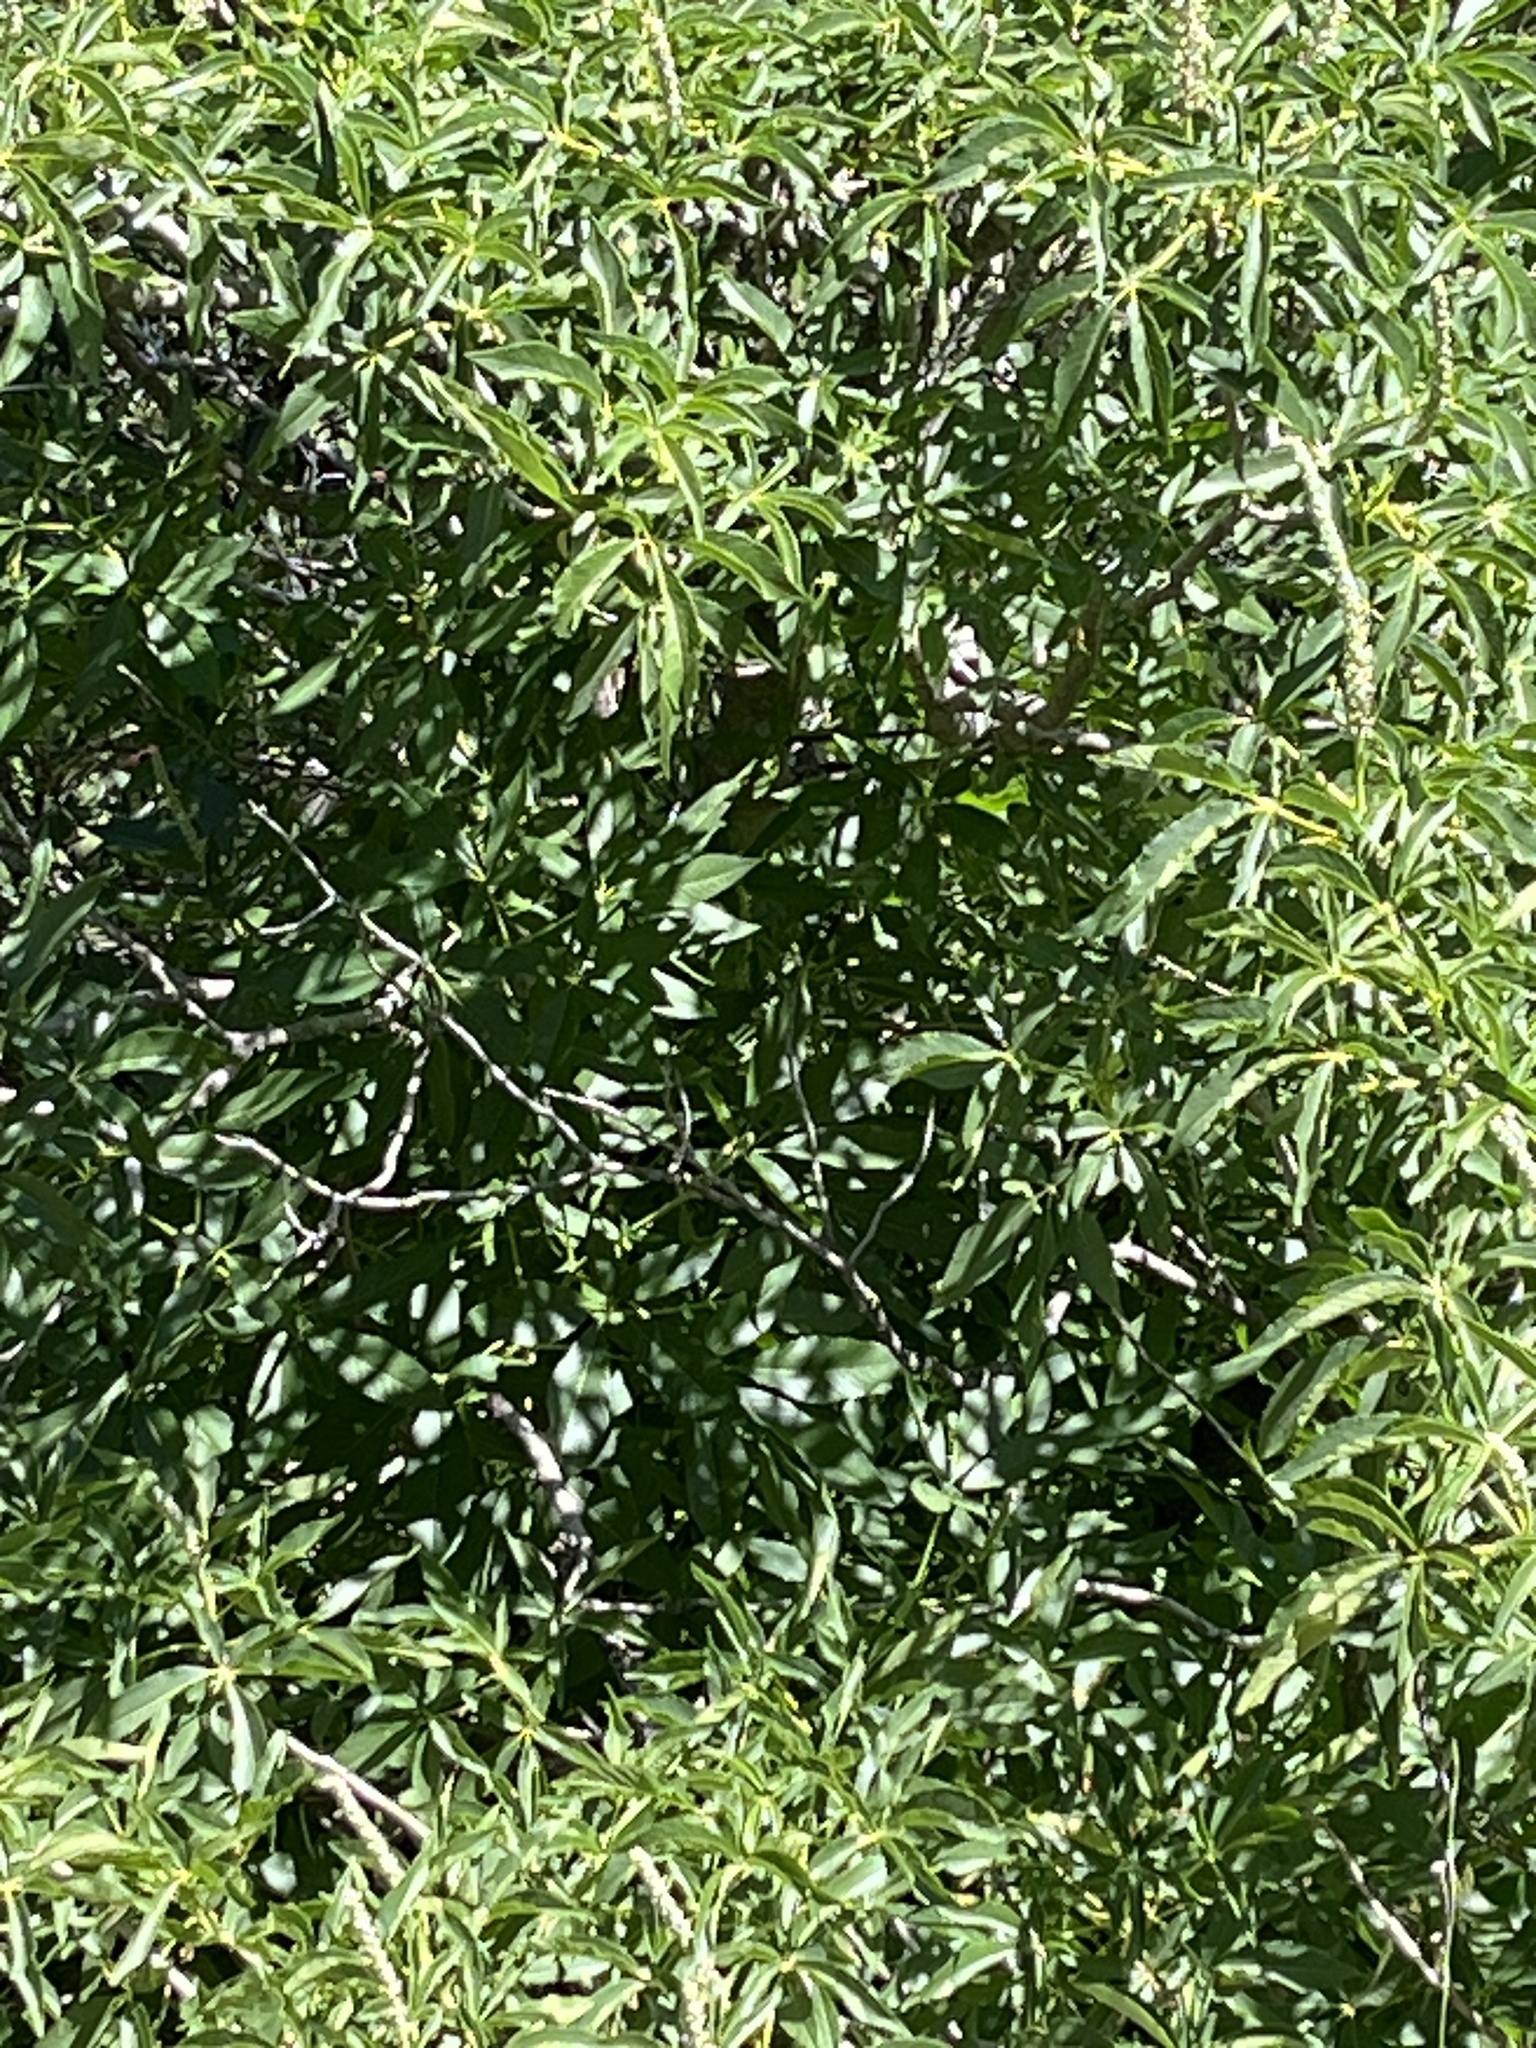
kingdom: Plantae
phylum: Tracheophyta
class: Magnoliopsida
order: Sapindales
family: Sapindaceae
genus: Aesculus
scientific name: Aesculus californica
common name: California buckeye
